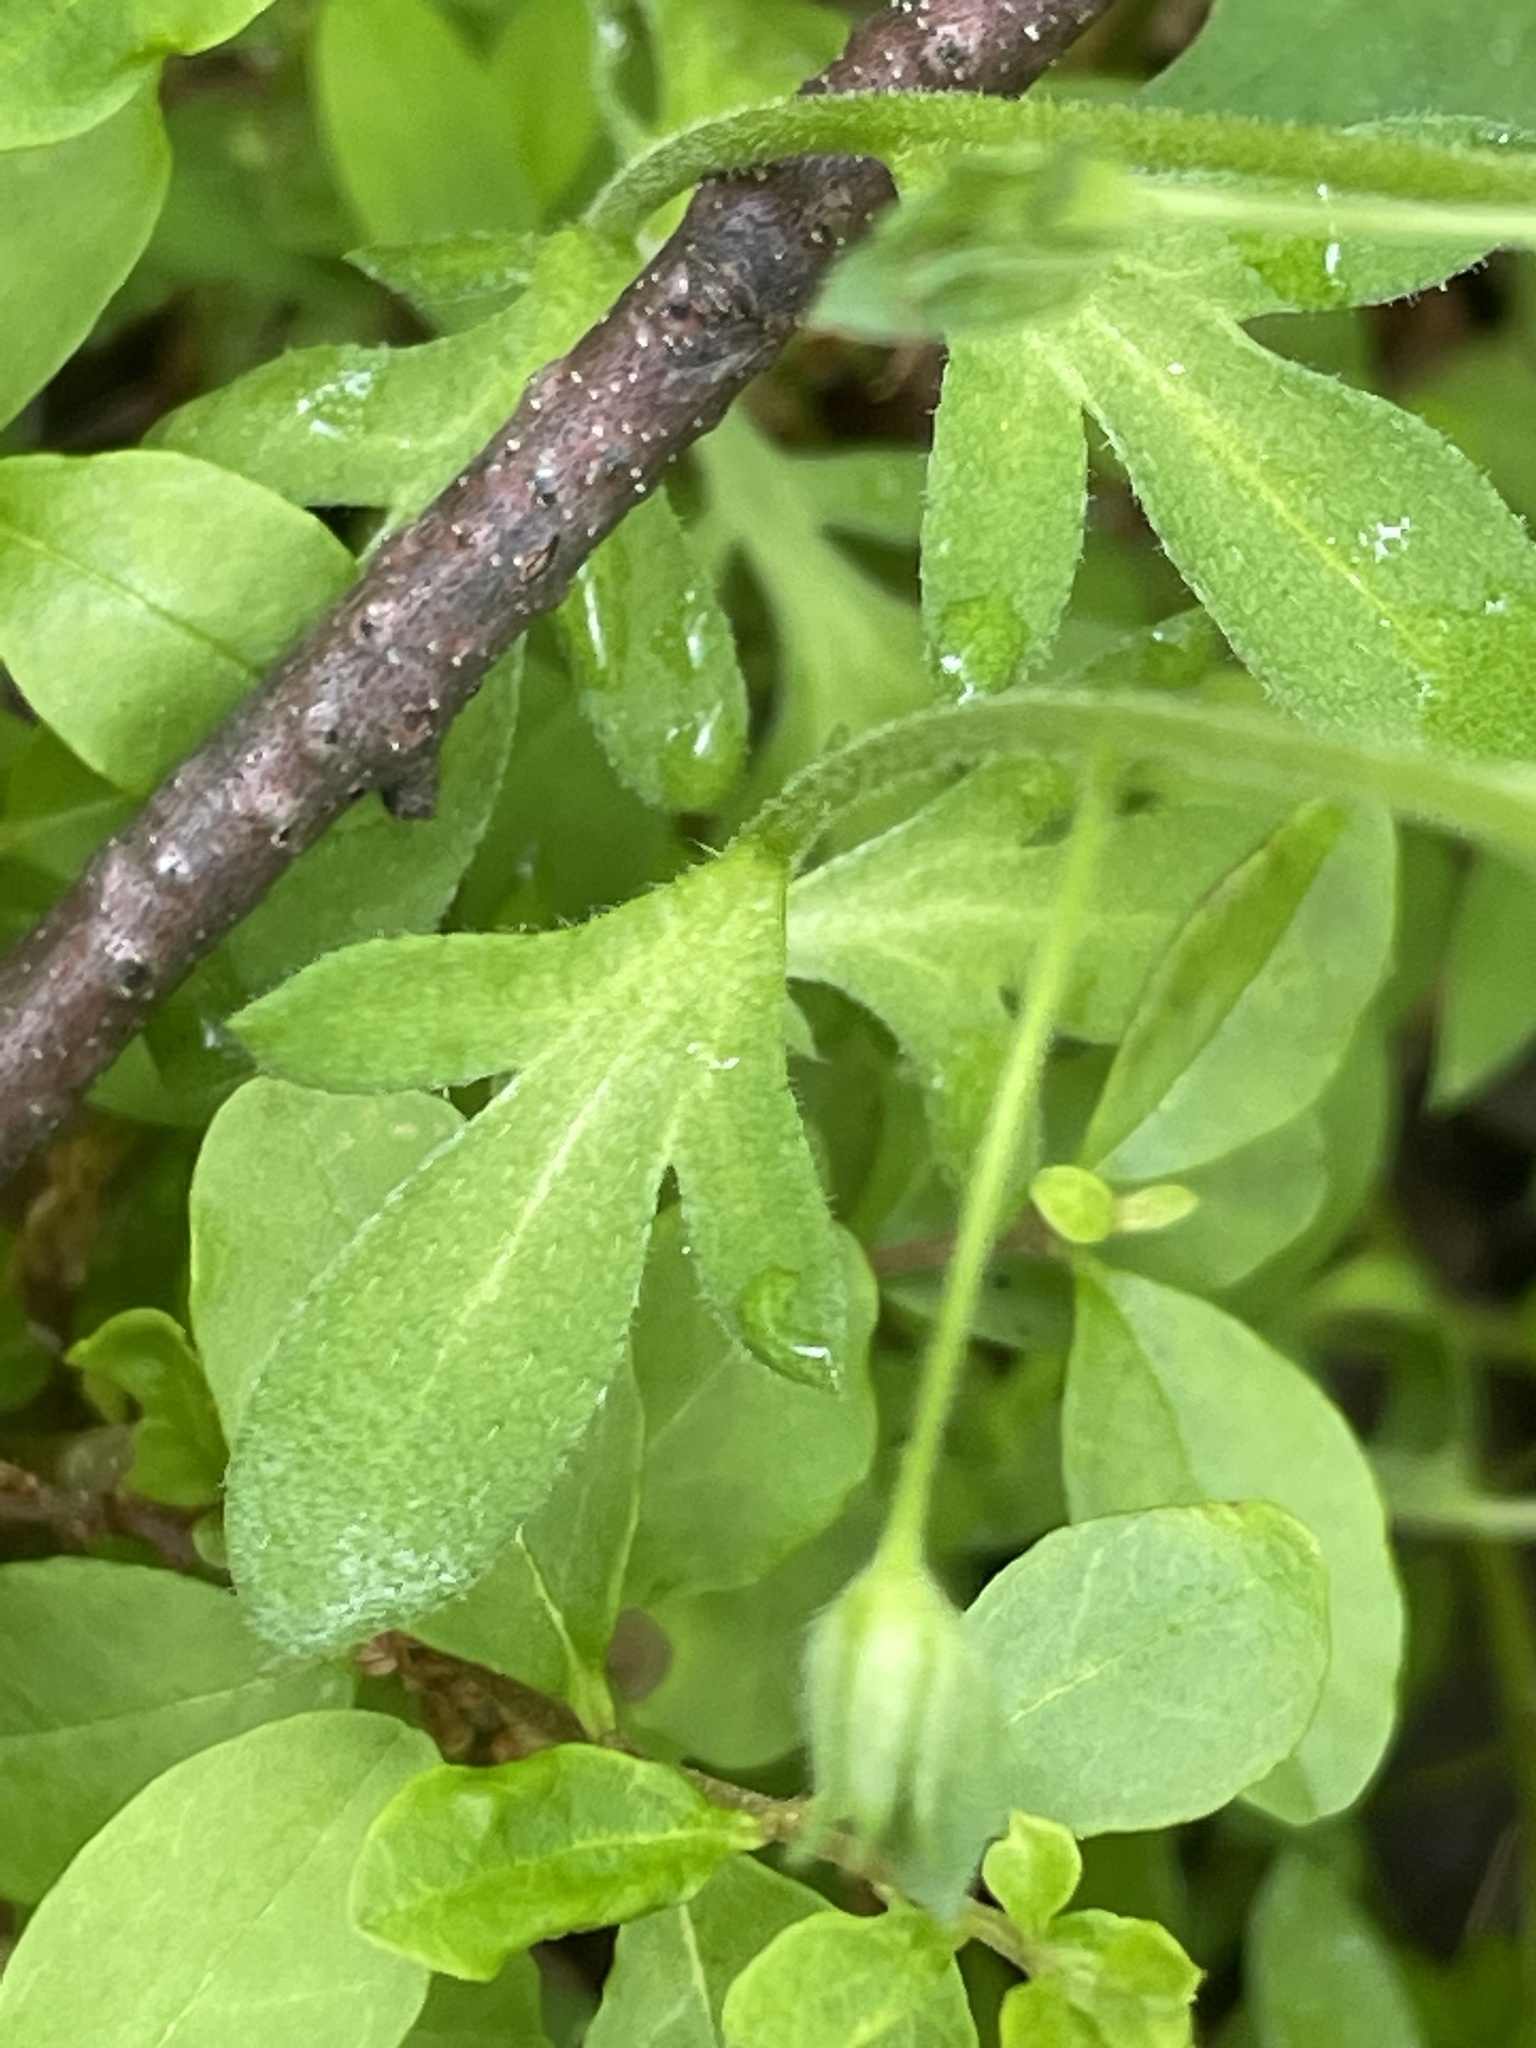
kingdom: Plantae
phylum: Tracheophyta
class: Magnoliopsida
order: Boraginales
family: Hydrophyllaceae
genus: Phacelia
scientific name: Phacelia dubia
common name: Appalachian phacelia
